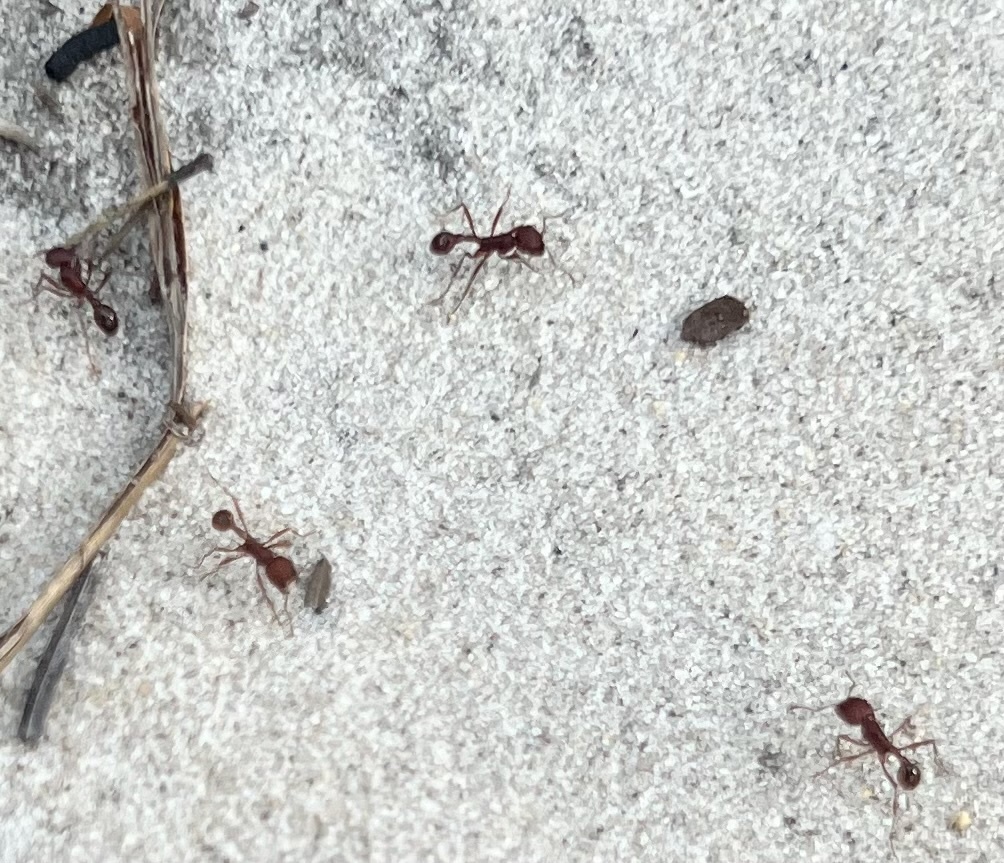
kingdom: Animalia
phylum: Arthropoda
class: Insecta
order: Hymenoptera
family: Formicidae
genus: Pogonomyrmex
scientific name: Pogonomyrmex badius
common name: Florida harvester ant
